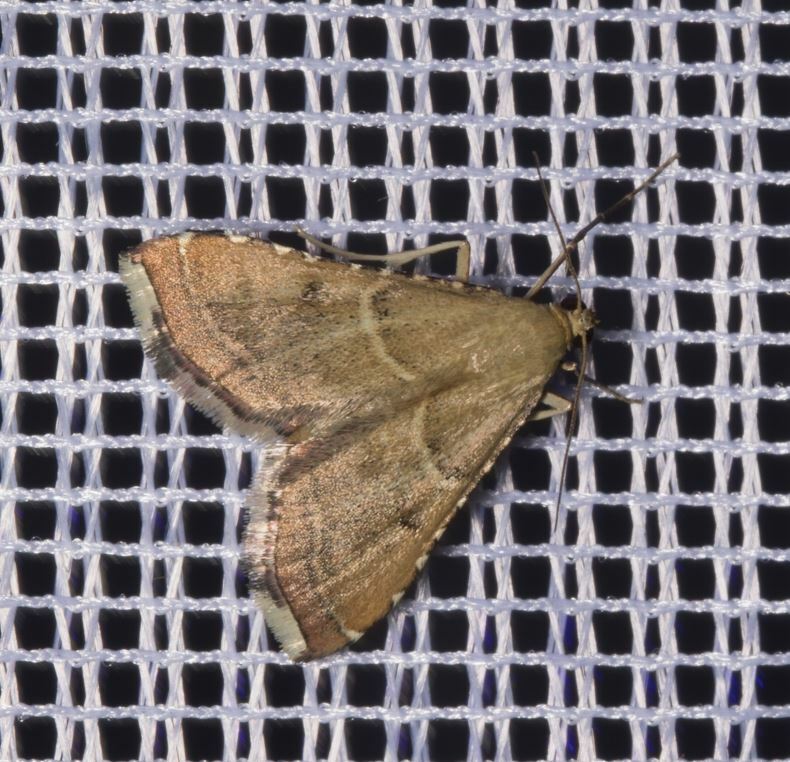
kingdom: Animalia
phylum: Arthropoda
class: Insecta
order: Lepidoptera
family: Pyralidae
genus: Endotricha
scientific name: Endotricha flammealis
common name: Rosy tabby
